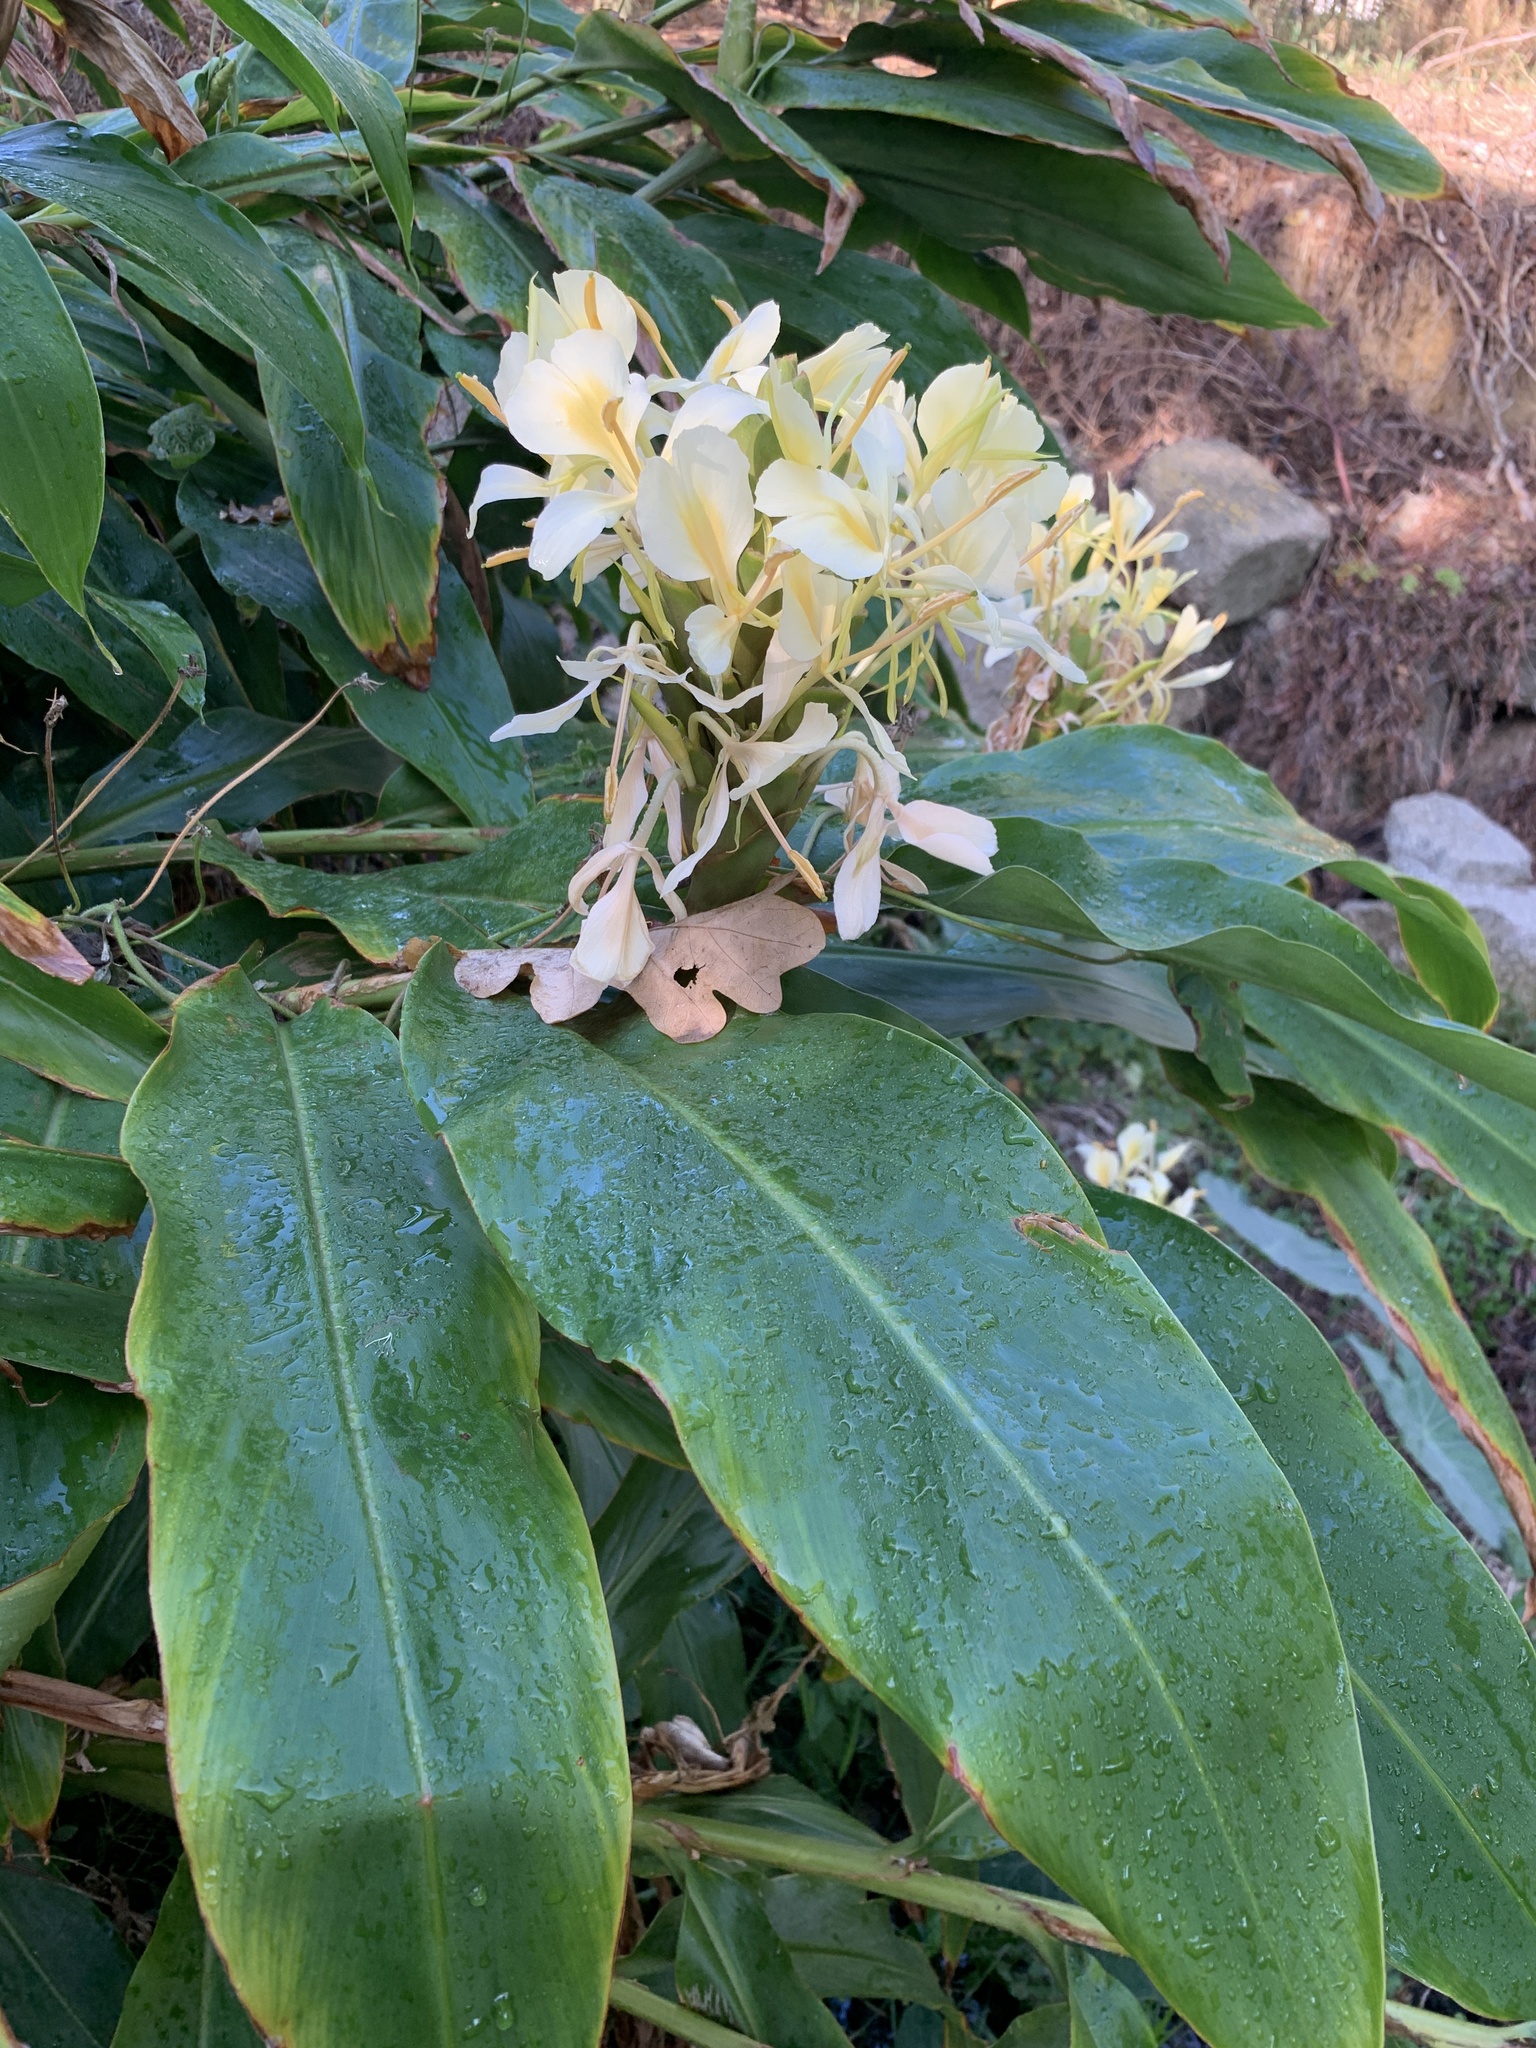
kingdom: Plantae
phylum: Tracheophyta
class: Liliopsida
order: Zingiberales
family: Zingiberaceae
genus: Hedychium
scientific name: Hedychium flavescens
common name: Yellow ginger
